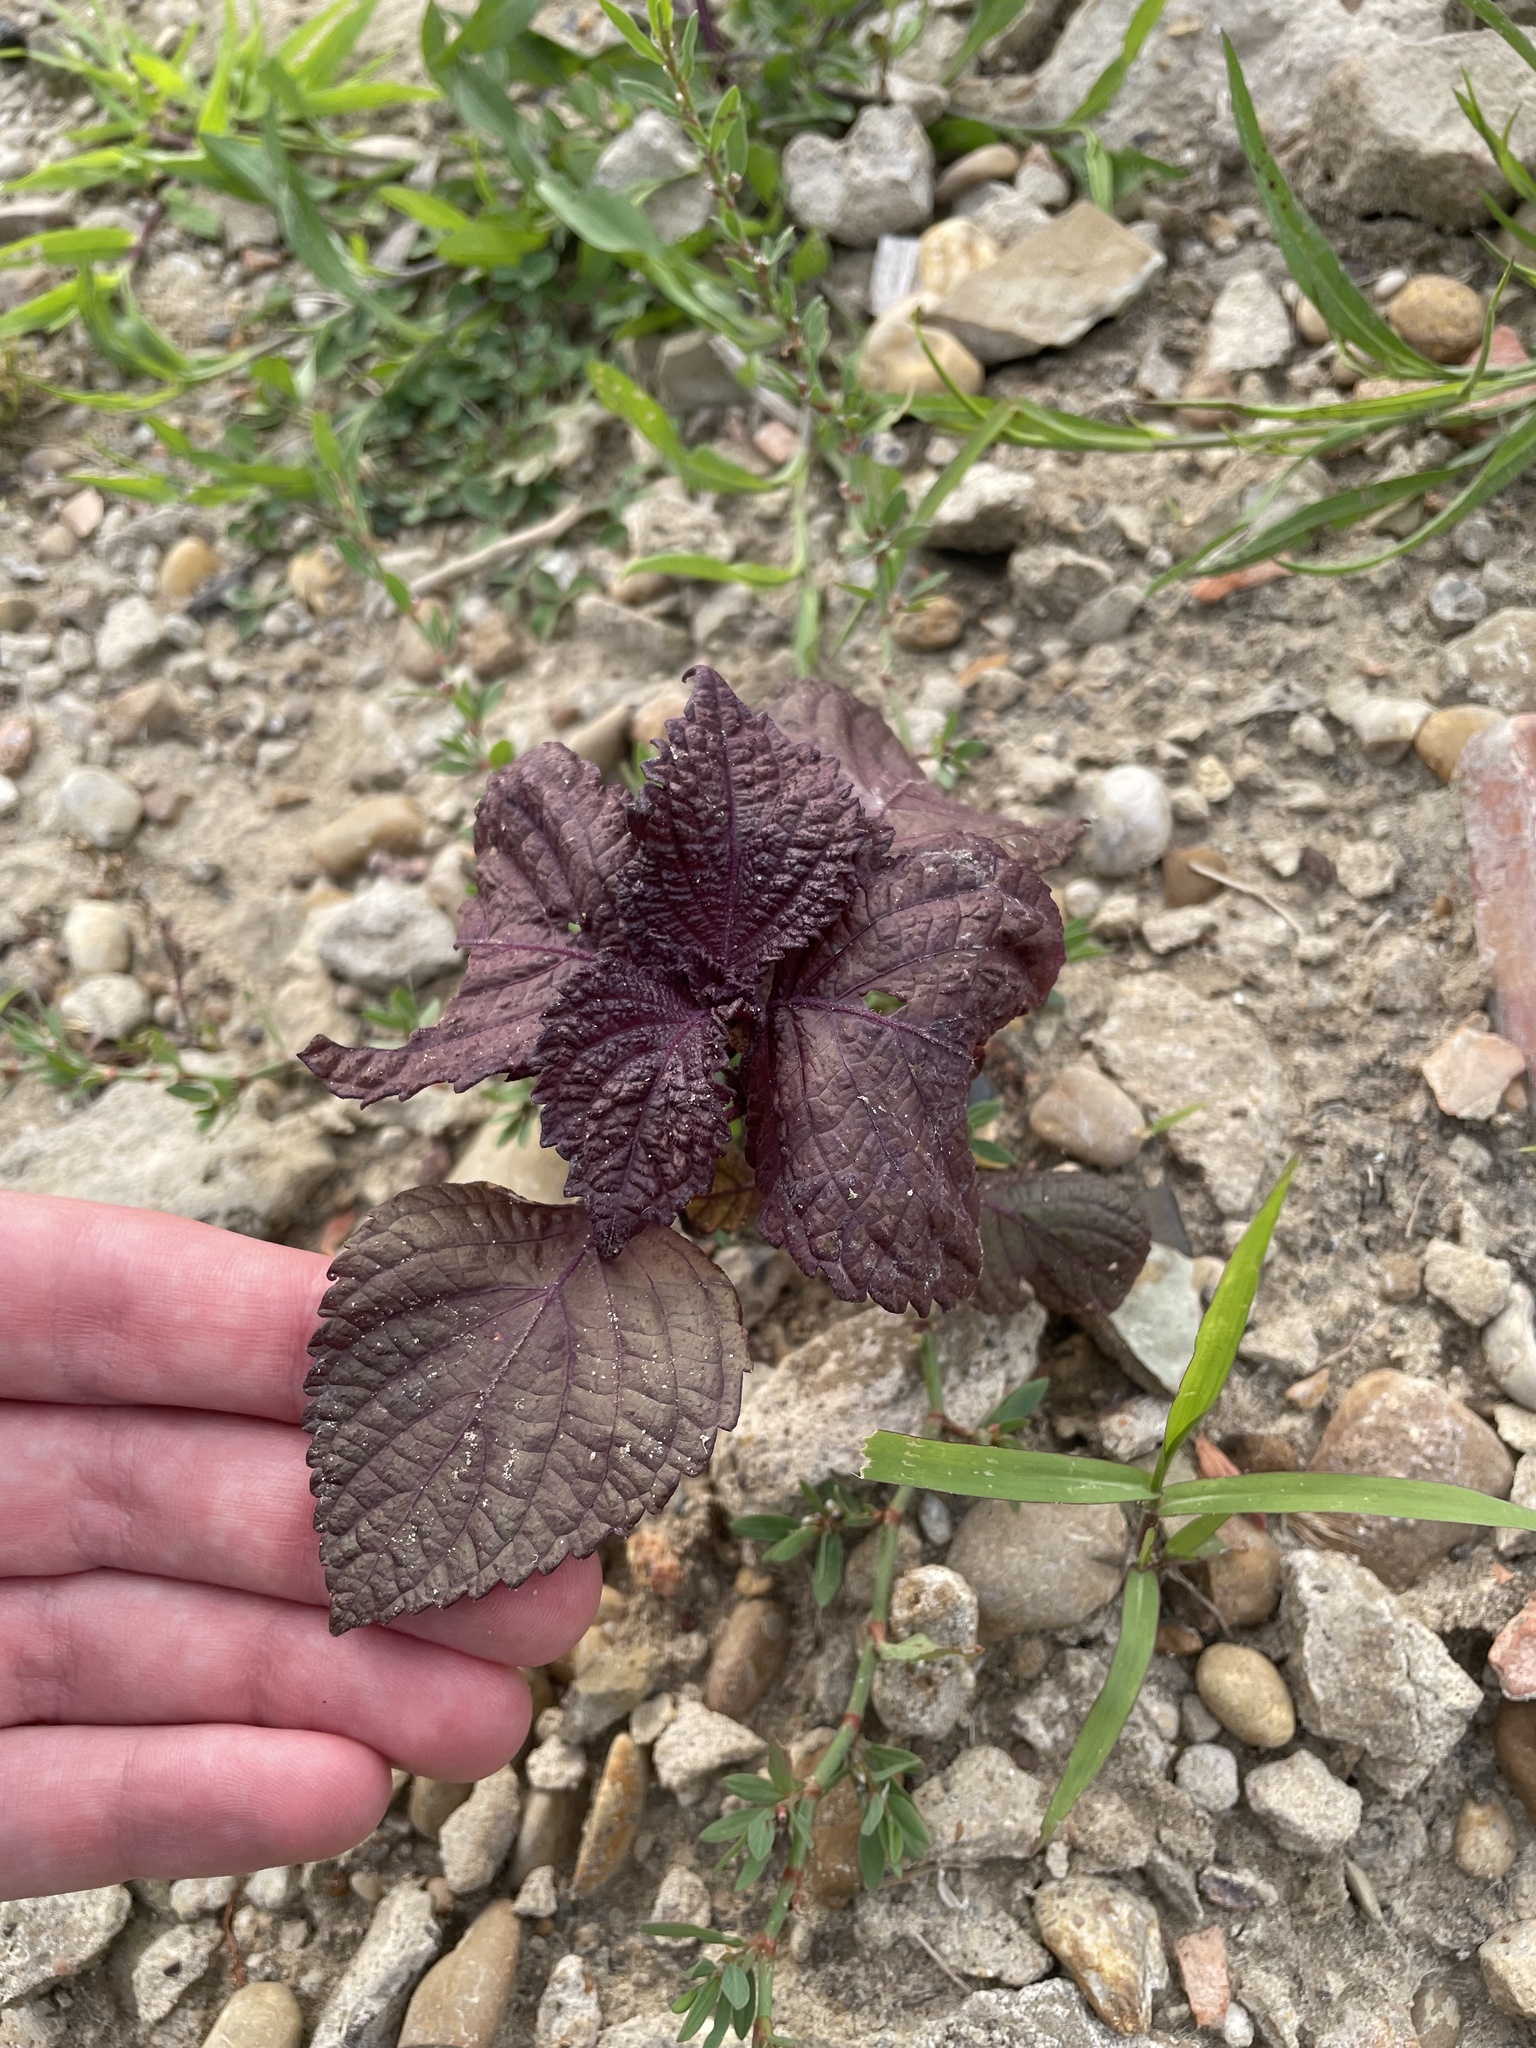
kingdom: Plantae
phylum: Tracheophyta
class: Magnoliopsida
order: Lamiales
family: Lamiaceae
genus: Perilla
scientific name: Perilla frutescens
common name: Perilla
